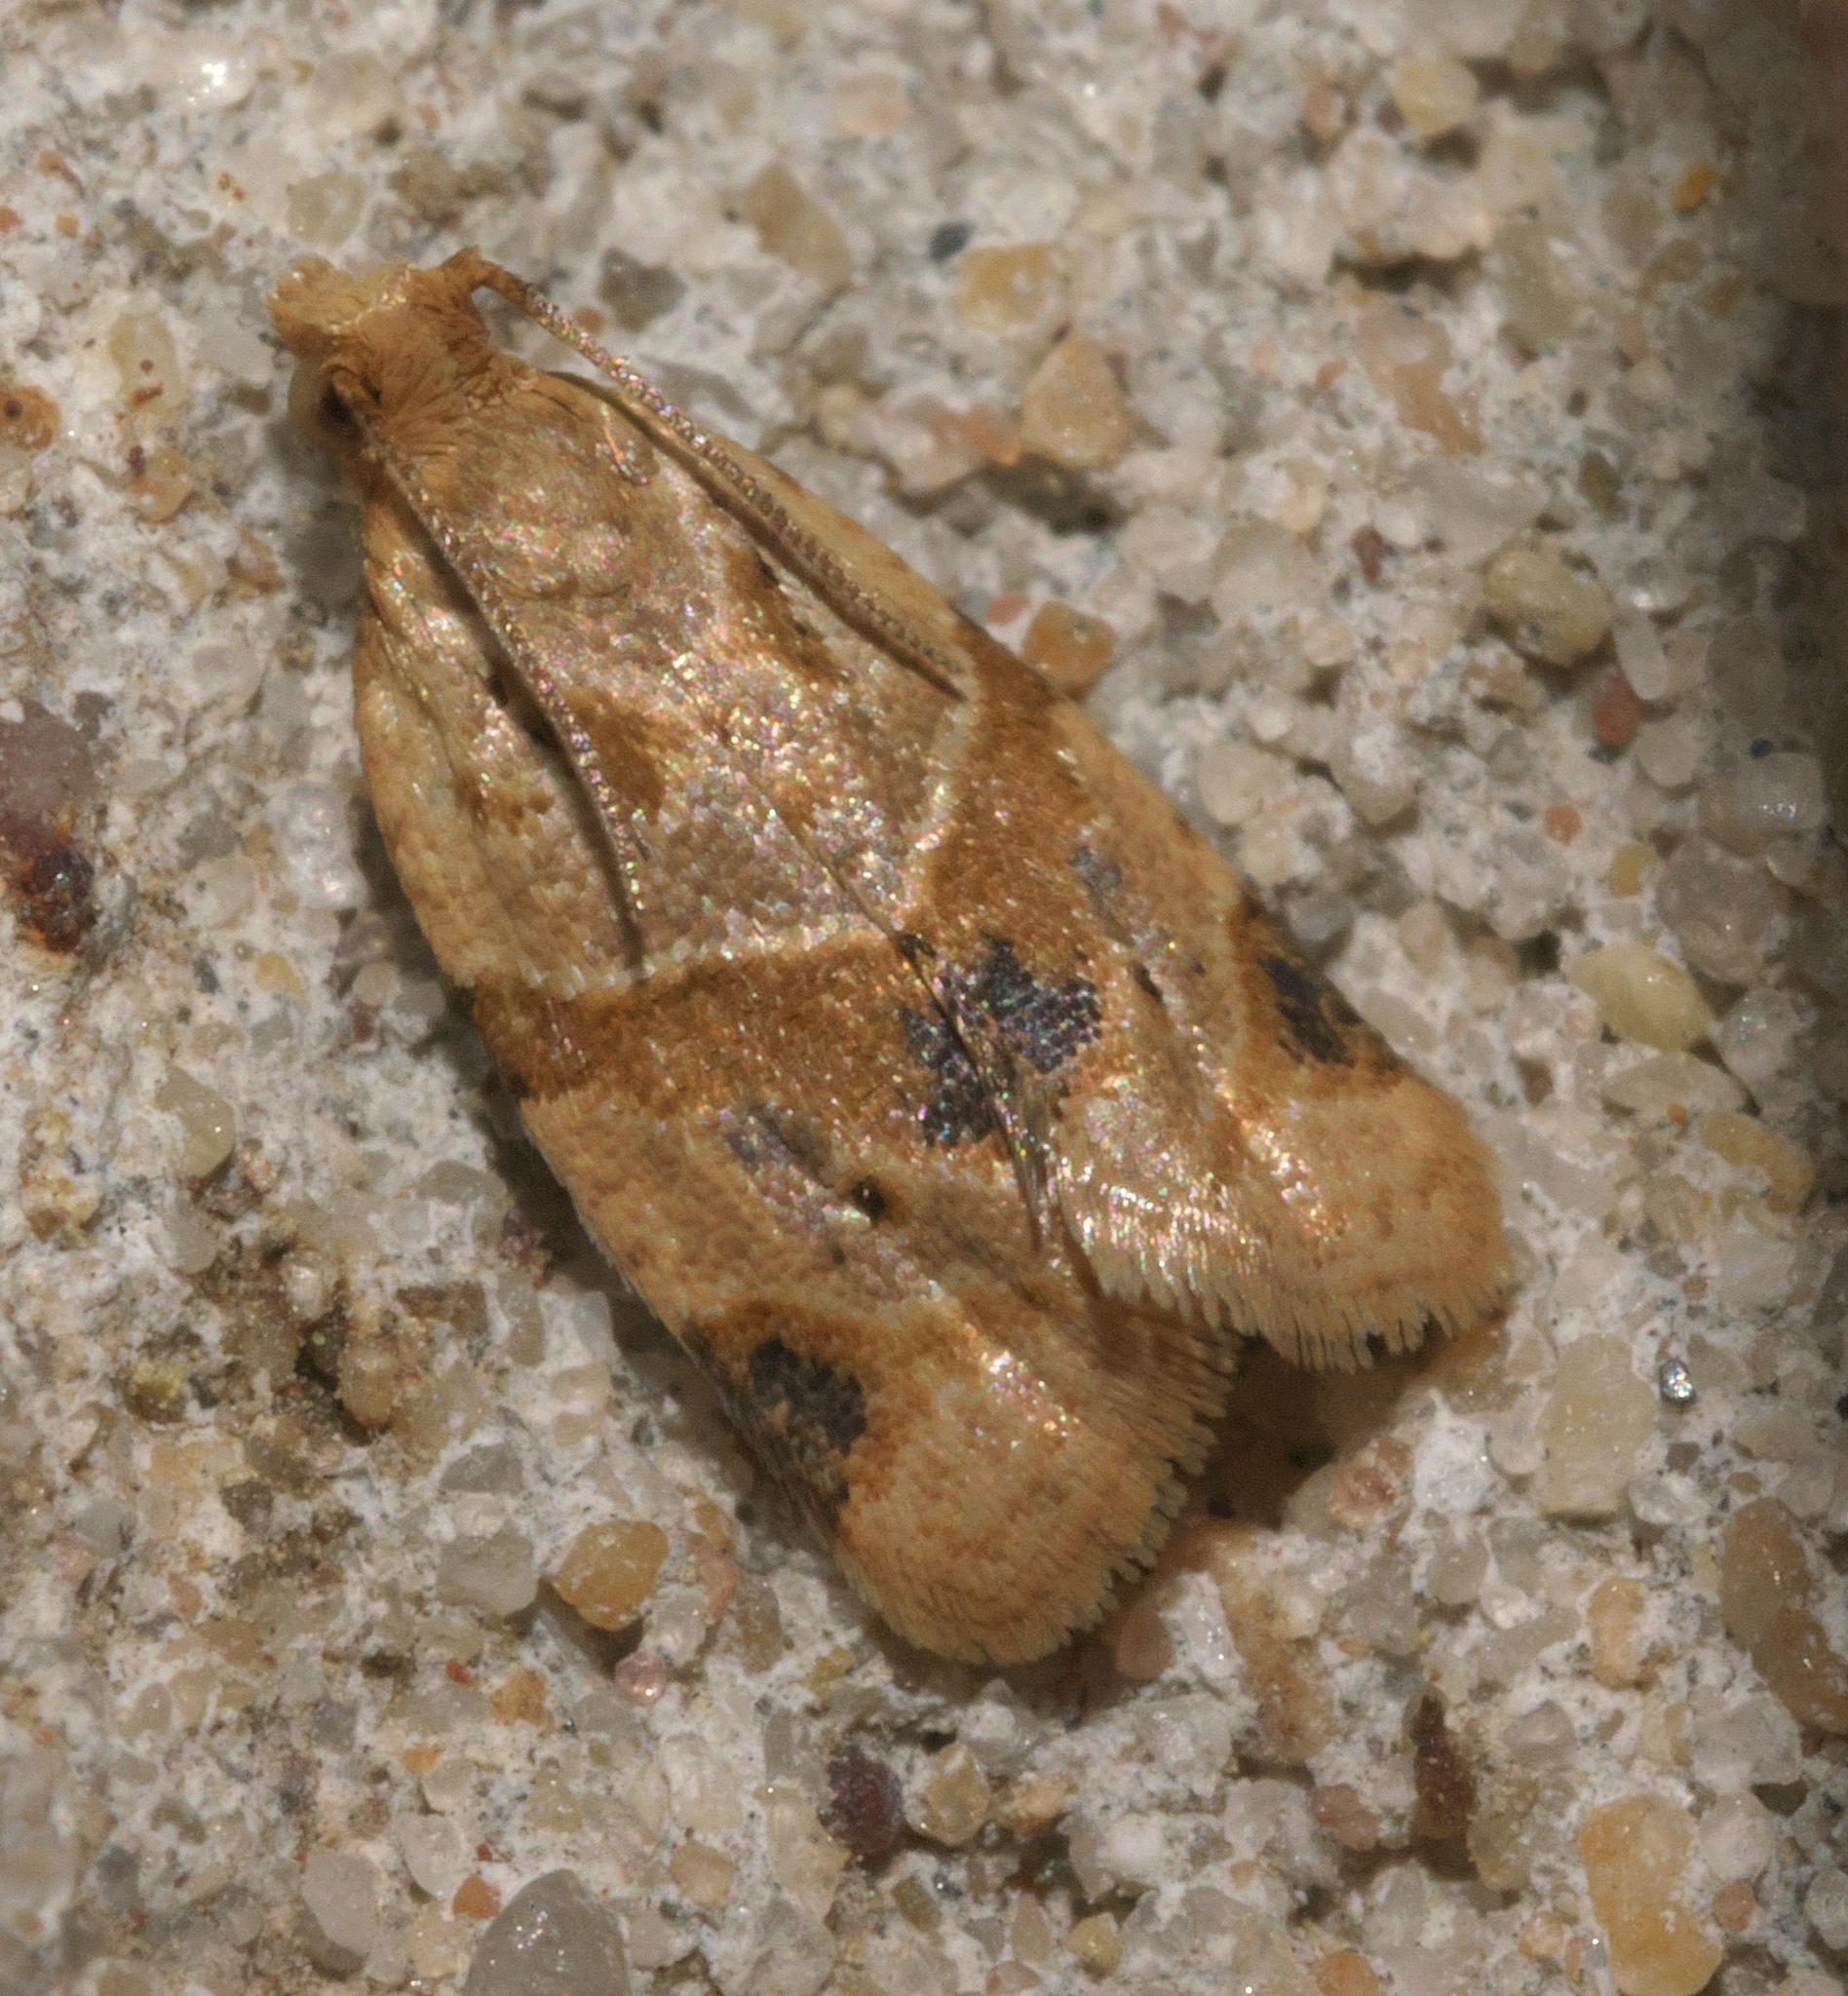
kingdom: Animalia
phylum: Arthropoda
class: Insecta
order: Lepidoptera
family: Tortricidae
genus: Clepsis
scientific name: Clepsis peritana
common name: Garden tortrix
